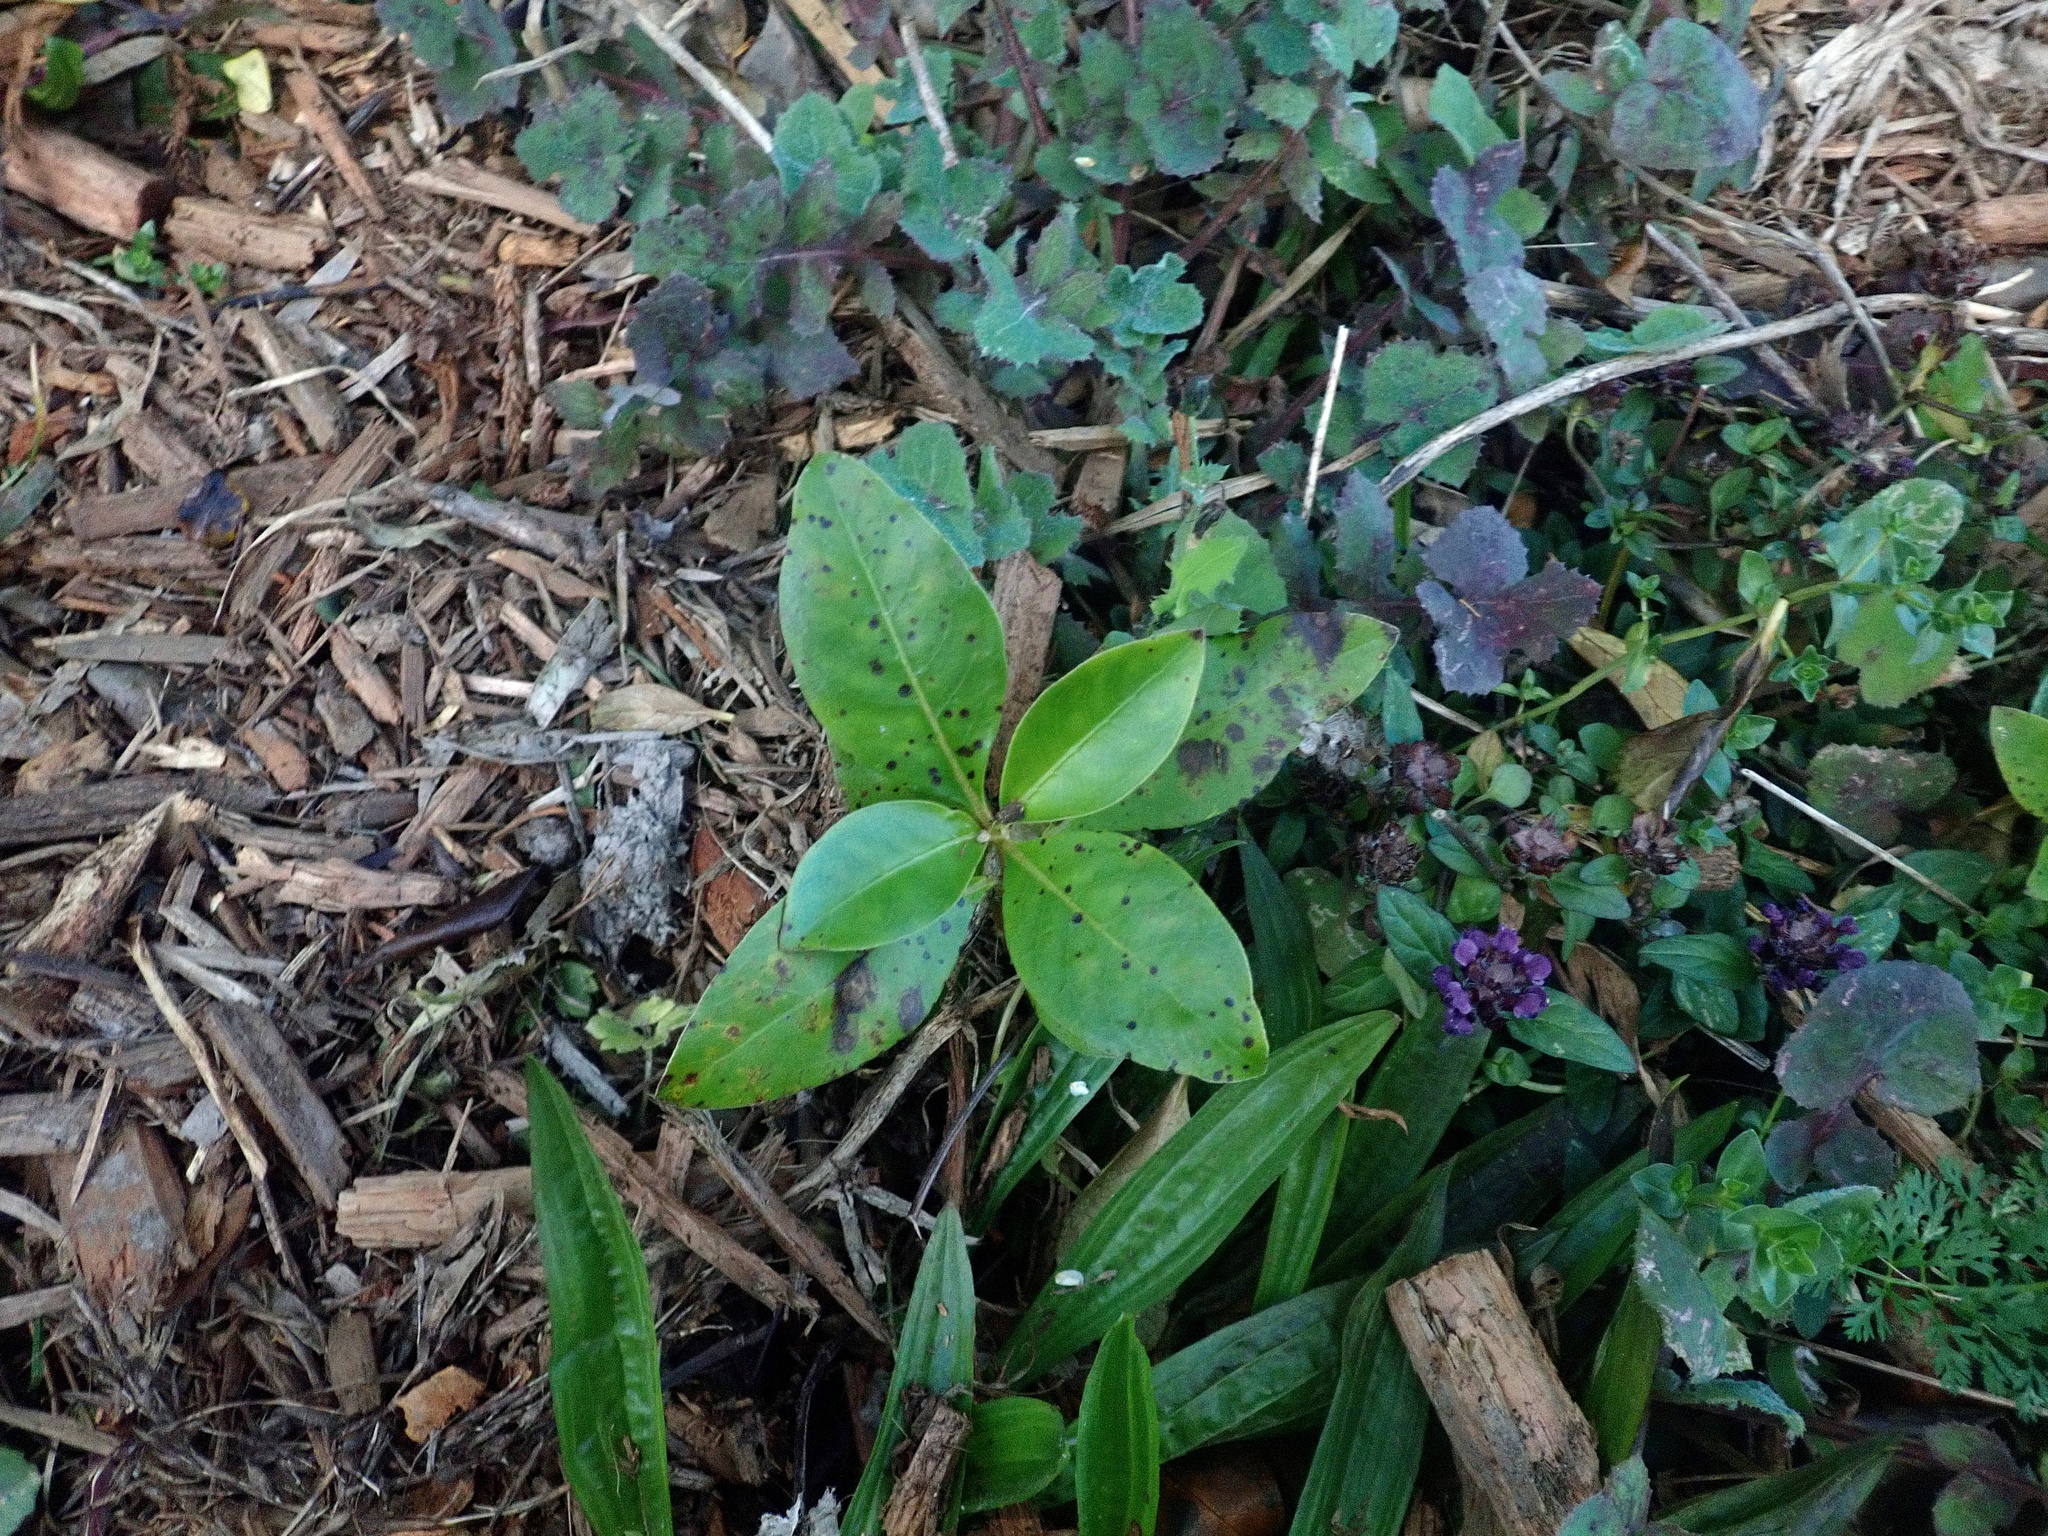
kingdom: Plantae
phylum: Tracheophyta
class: Magnoliopsida
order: Gentianales
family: Rubiaceae
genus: Coprosma
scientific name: Coprosma robusta
